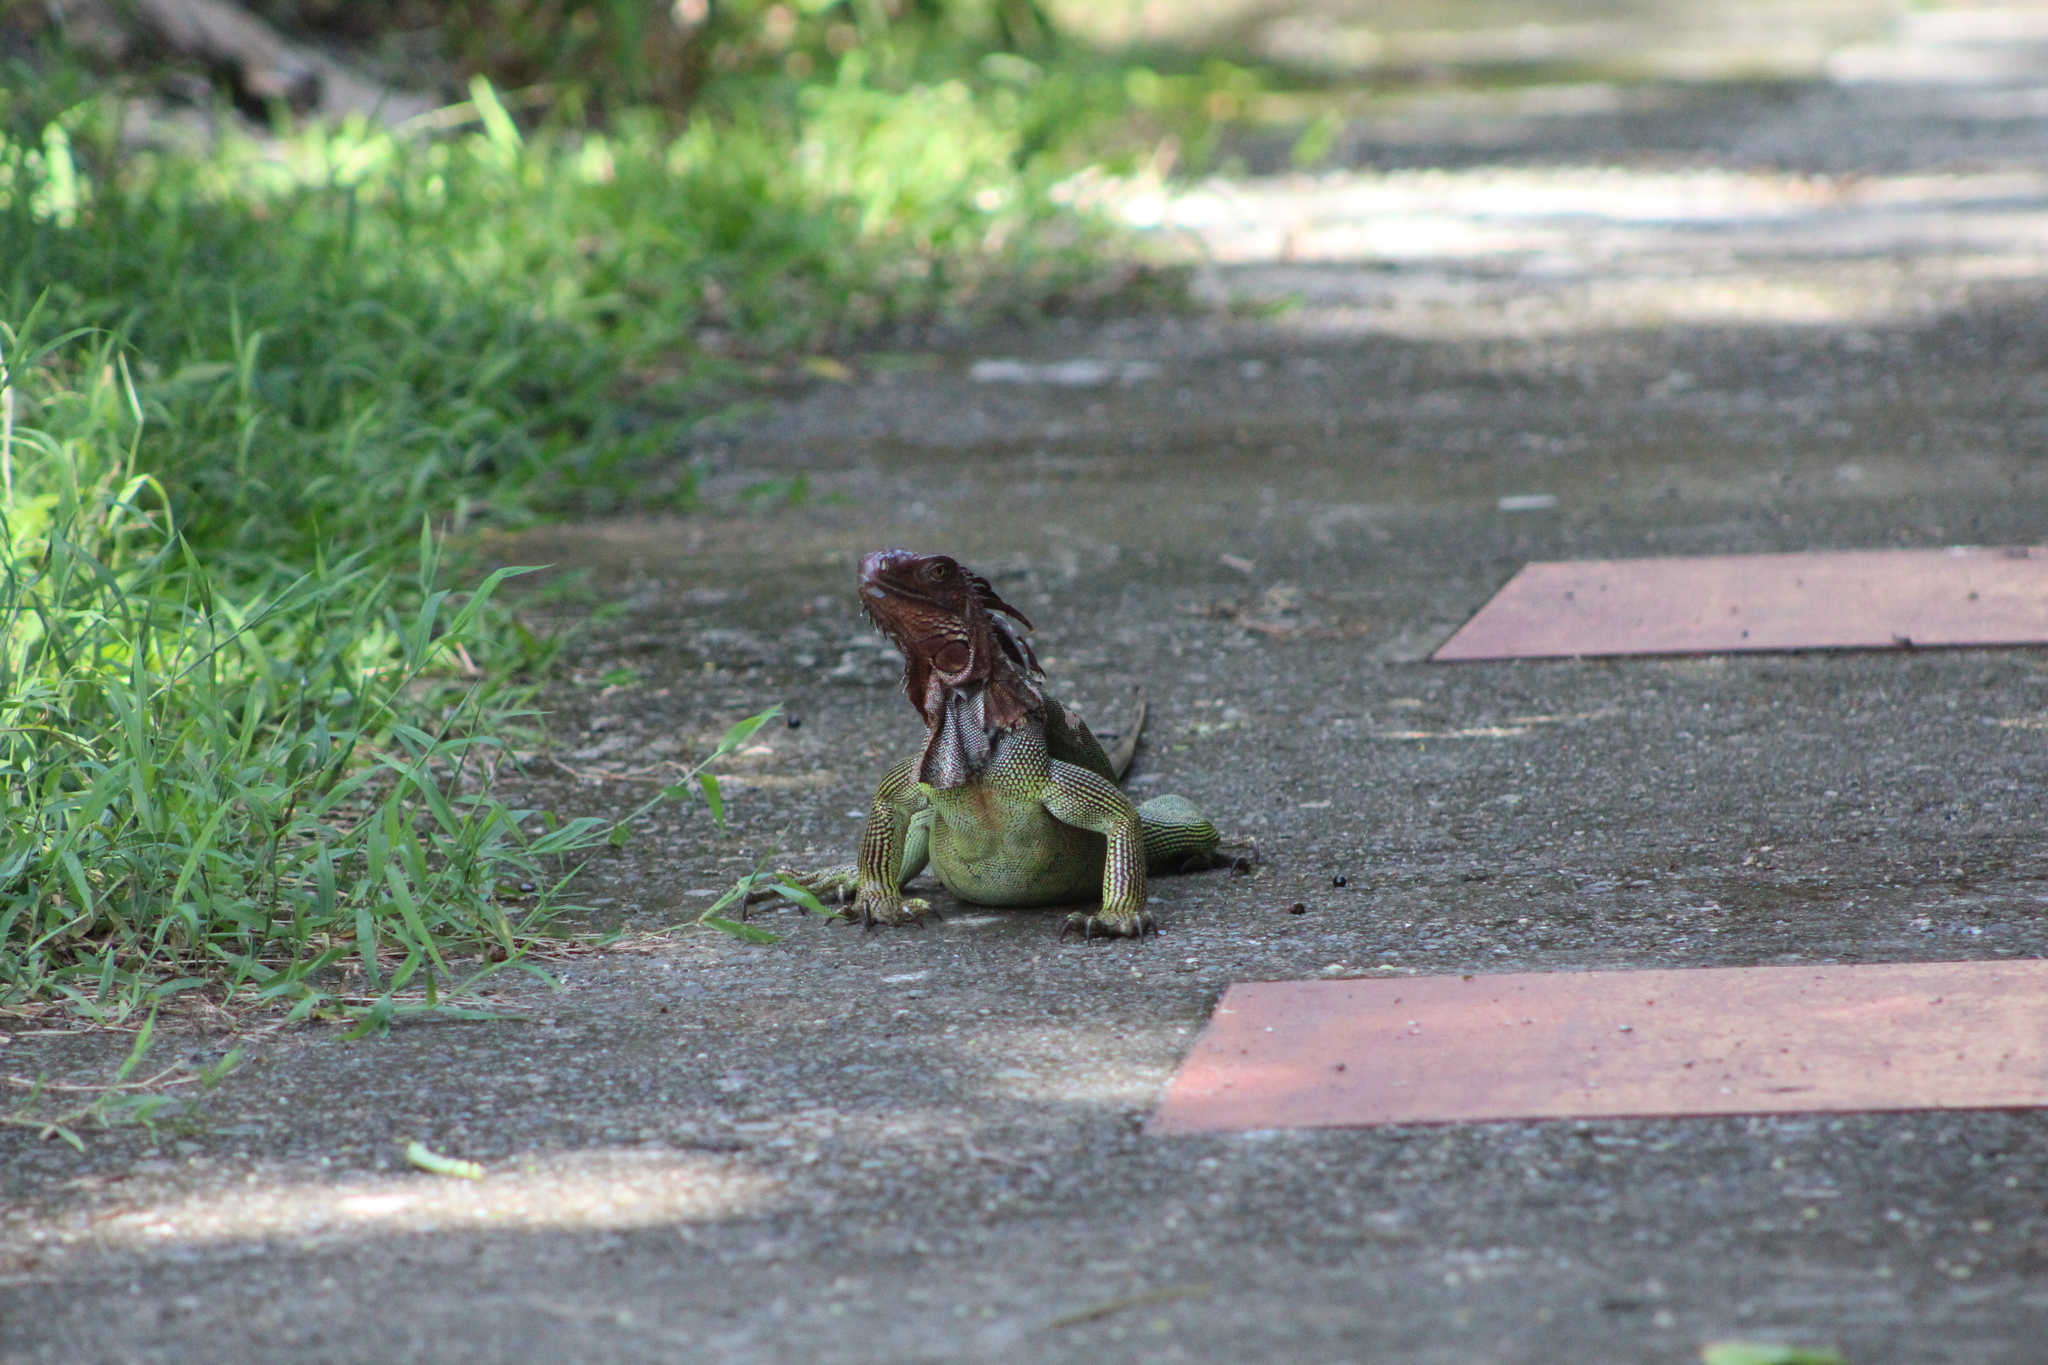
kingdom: Animalia
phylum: Chordata
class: Squamata
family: Iguanidae
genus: Iguana
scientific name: Iguana iguana
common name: Green iguana
